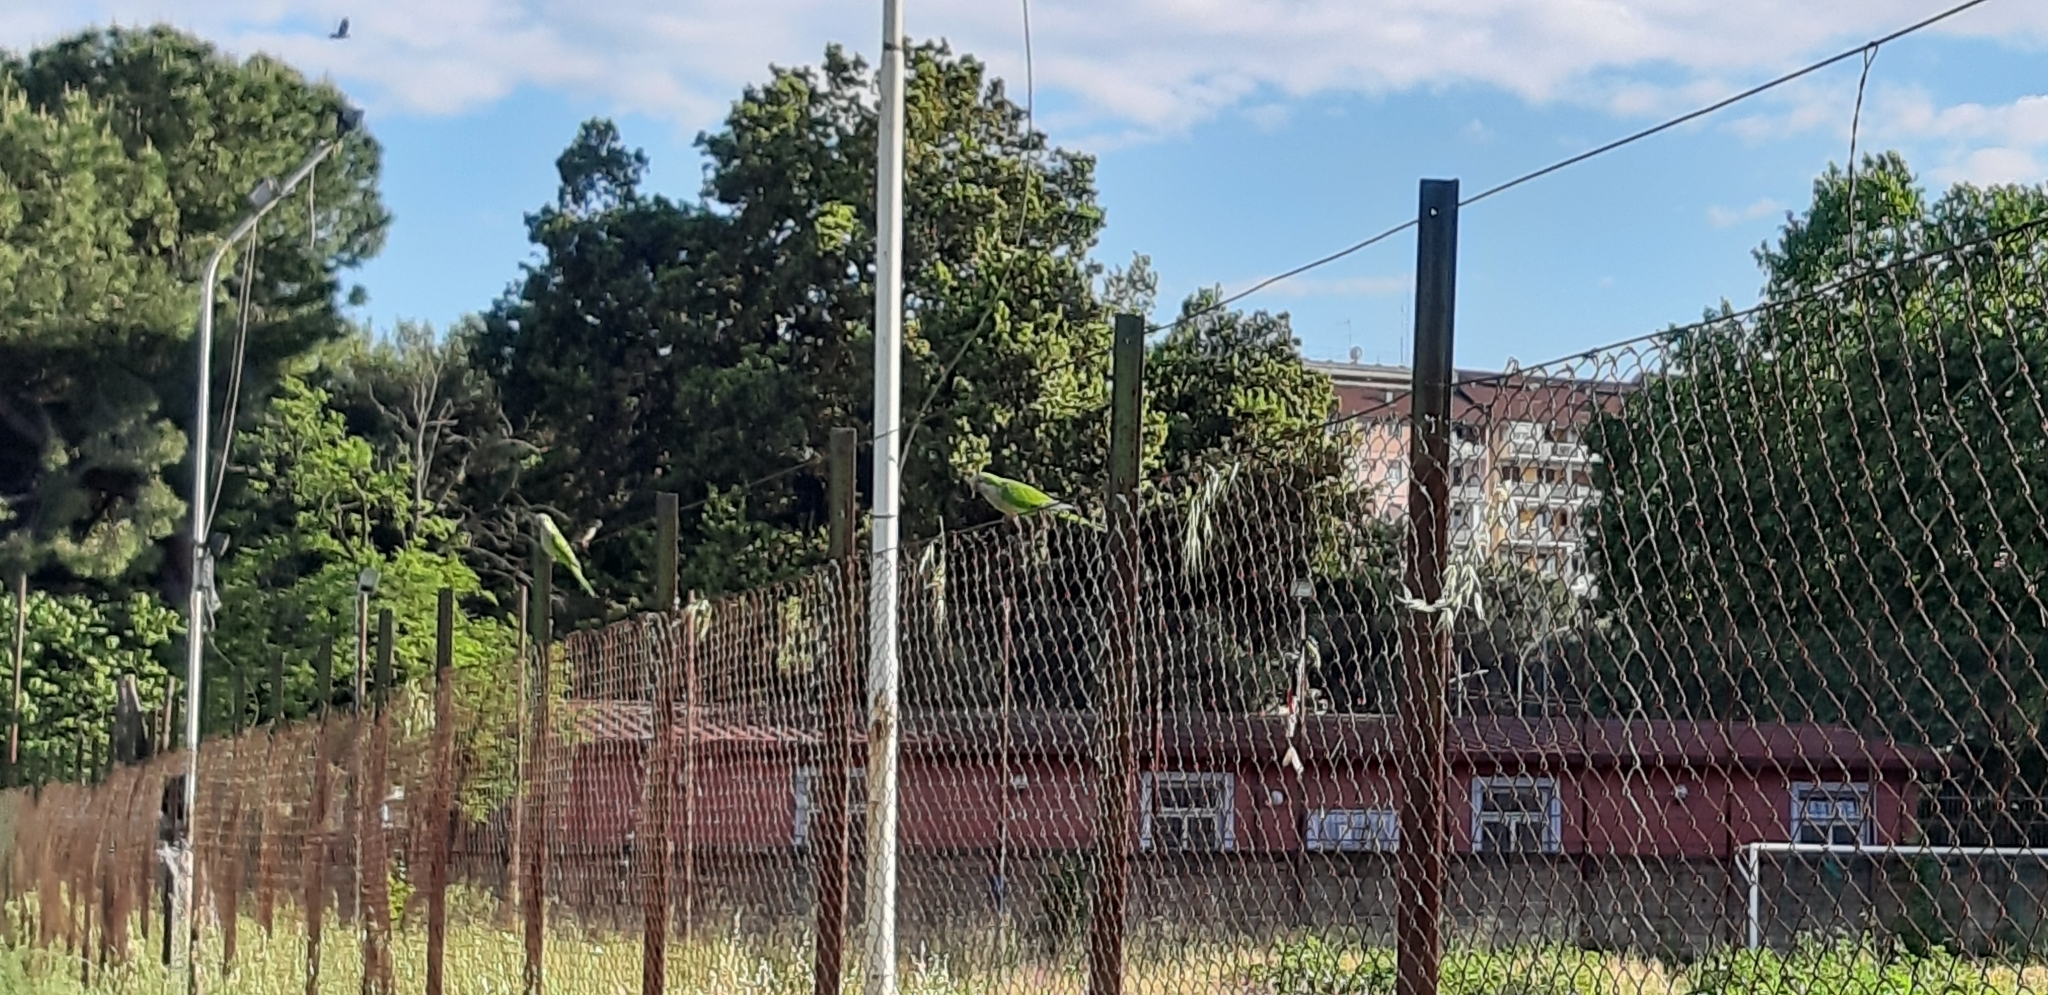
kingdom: Animalia
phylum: Chordata
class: Aves
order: Psittaciformes
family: Psittacidae
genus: Myiopsitta
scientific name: Myiopsitta monachus
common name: Monk parakeet
